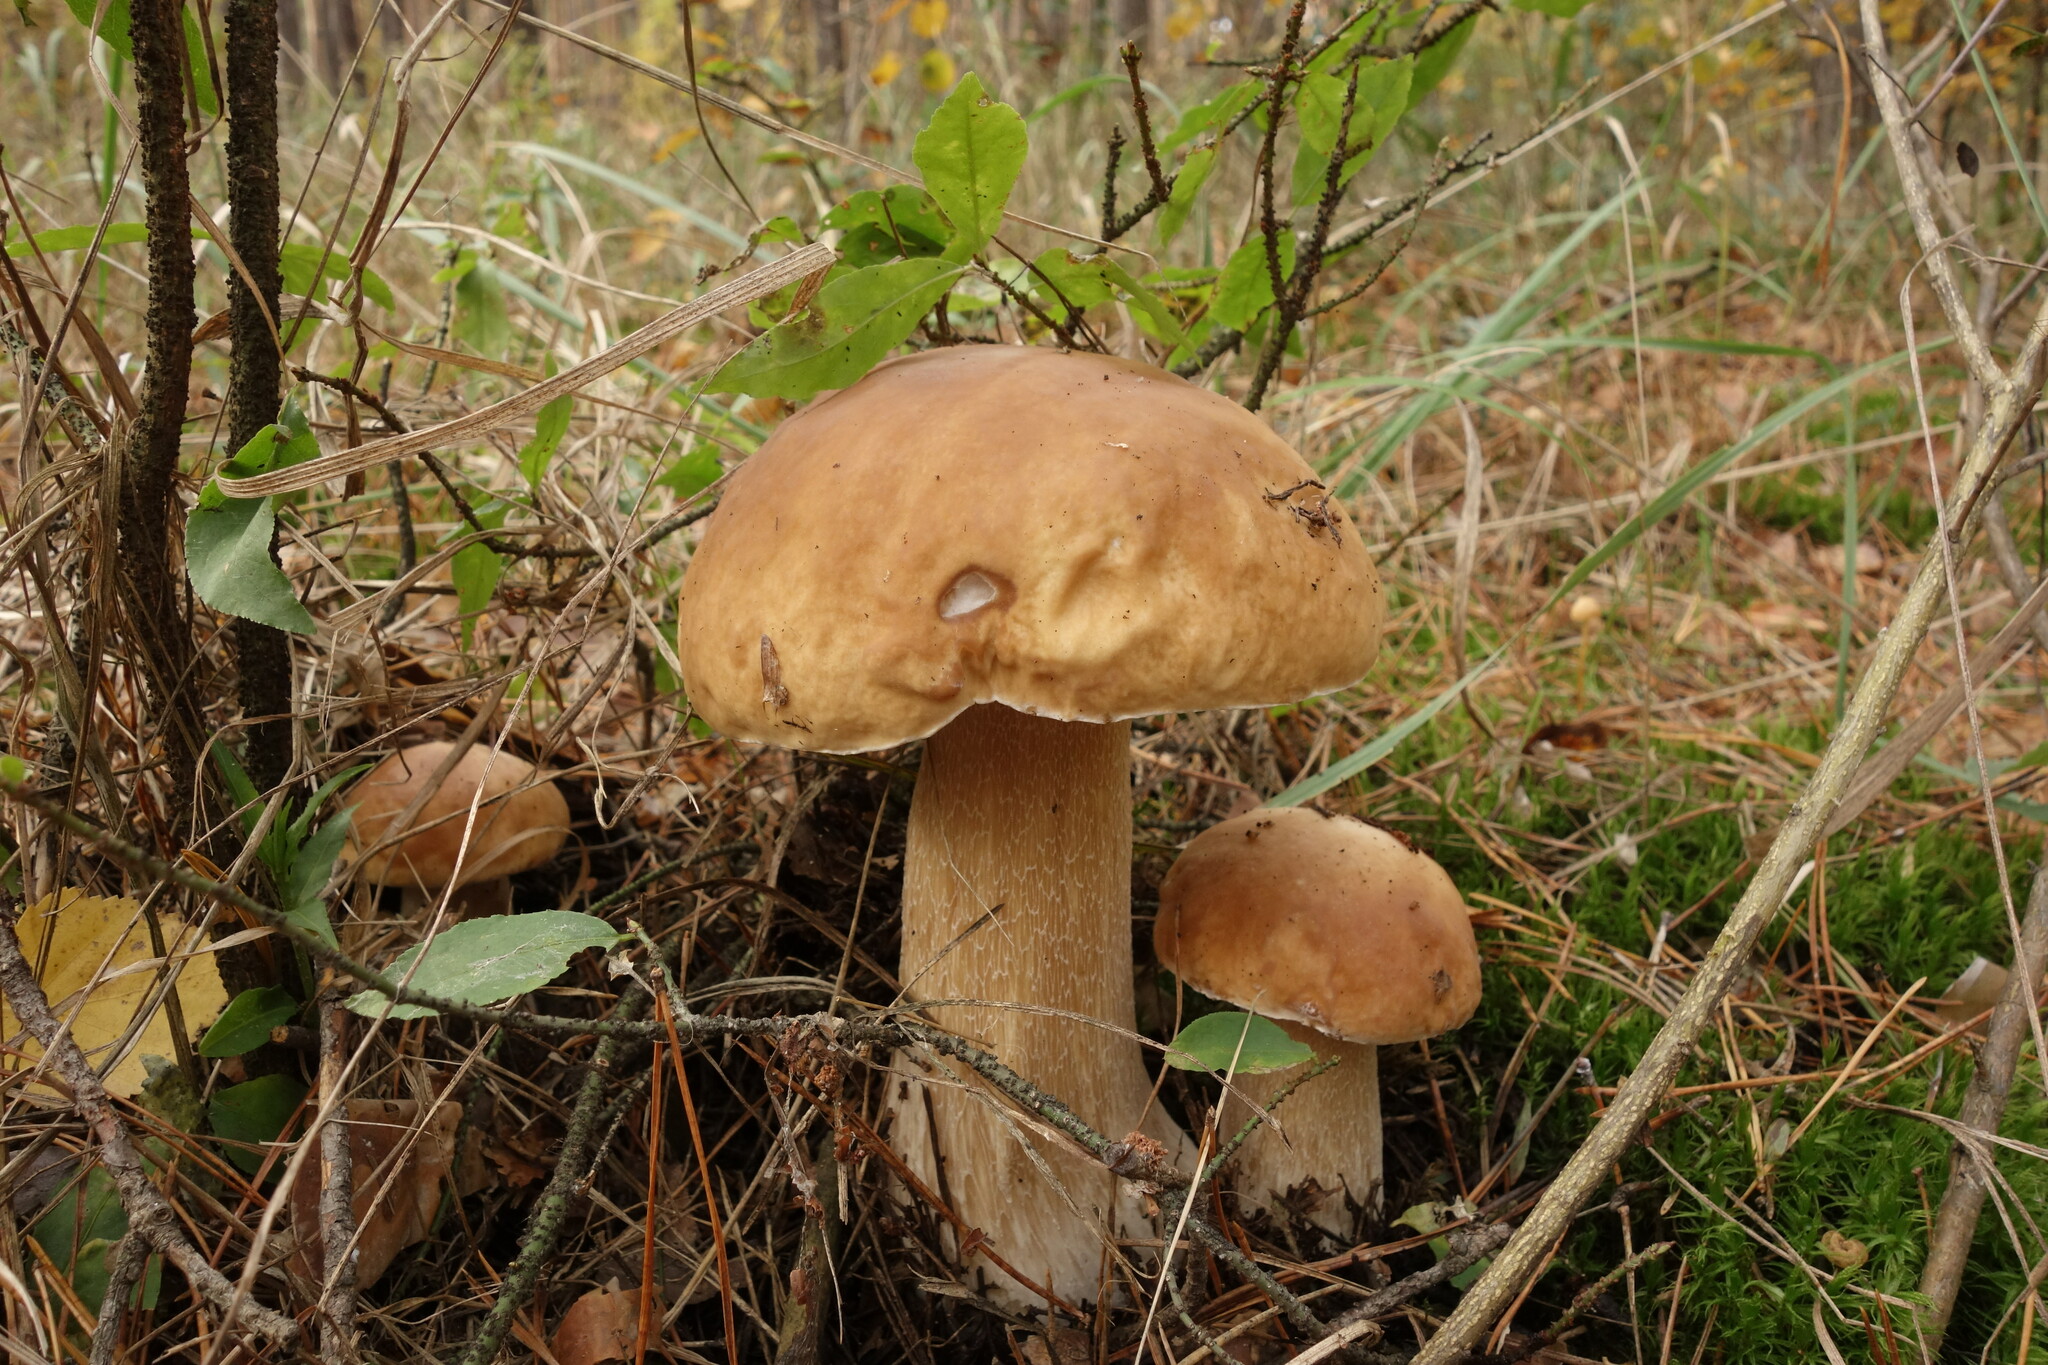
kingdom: Fungi
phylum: Basidiomycota
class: Agaricomycetes
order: Boletales
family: Boletaceae
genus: Boletus
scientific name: Boletus edulis
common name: Cep
